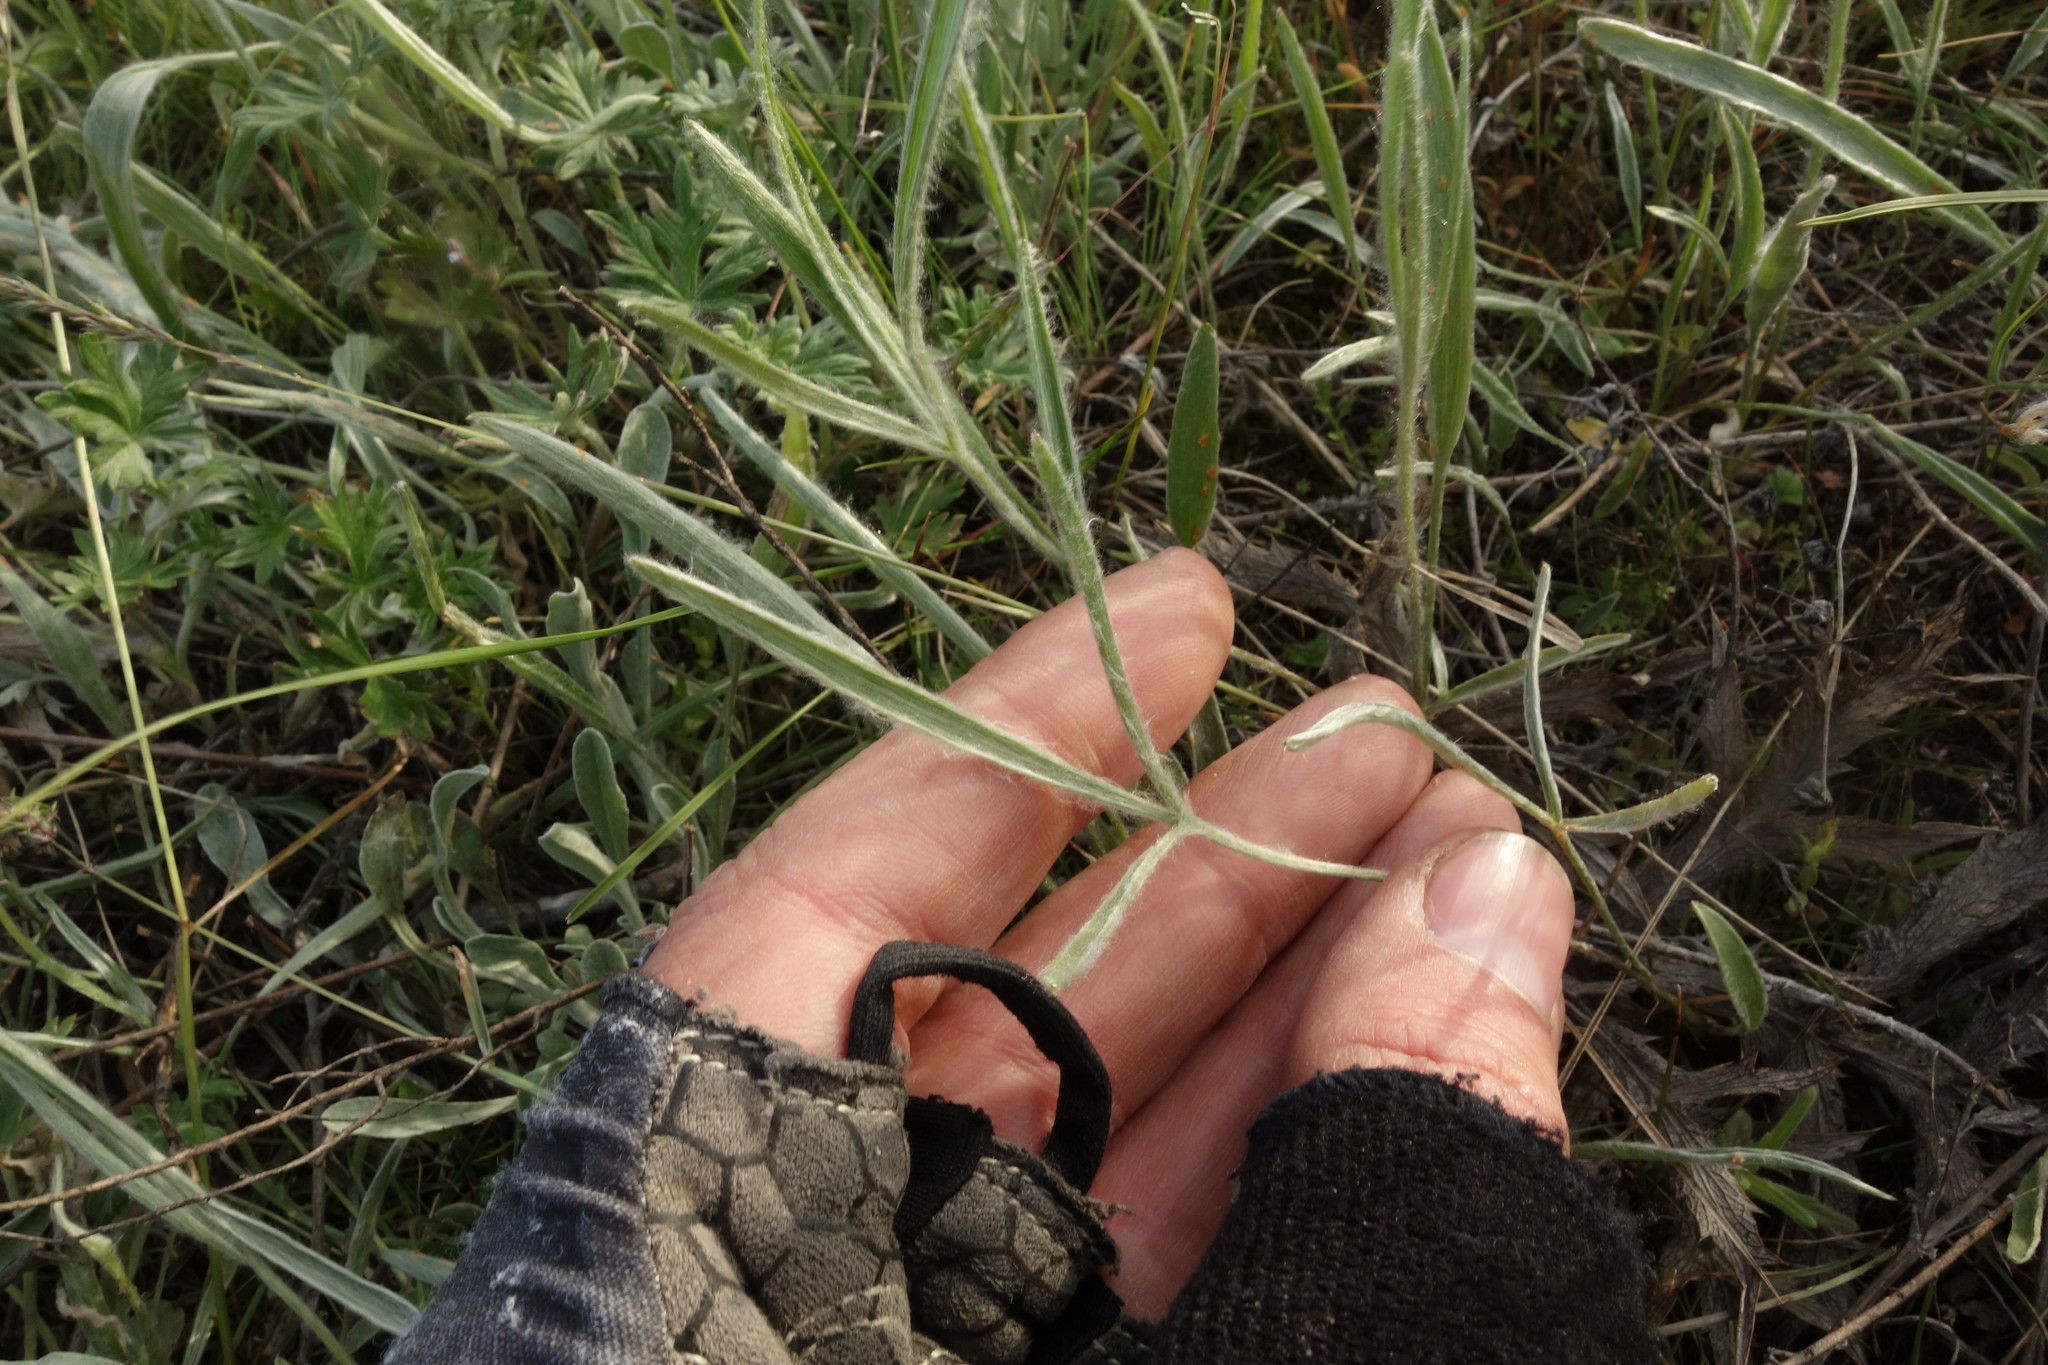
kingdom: Plantae
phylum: Tracheophyta
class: Magnoliopsida
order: Ranunculales
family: Ranunculaceae
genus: Ranunculus
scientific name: Ranunculus illyricus
